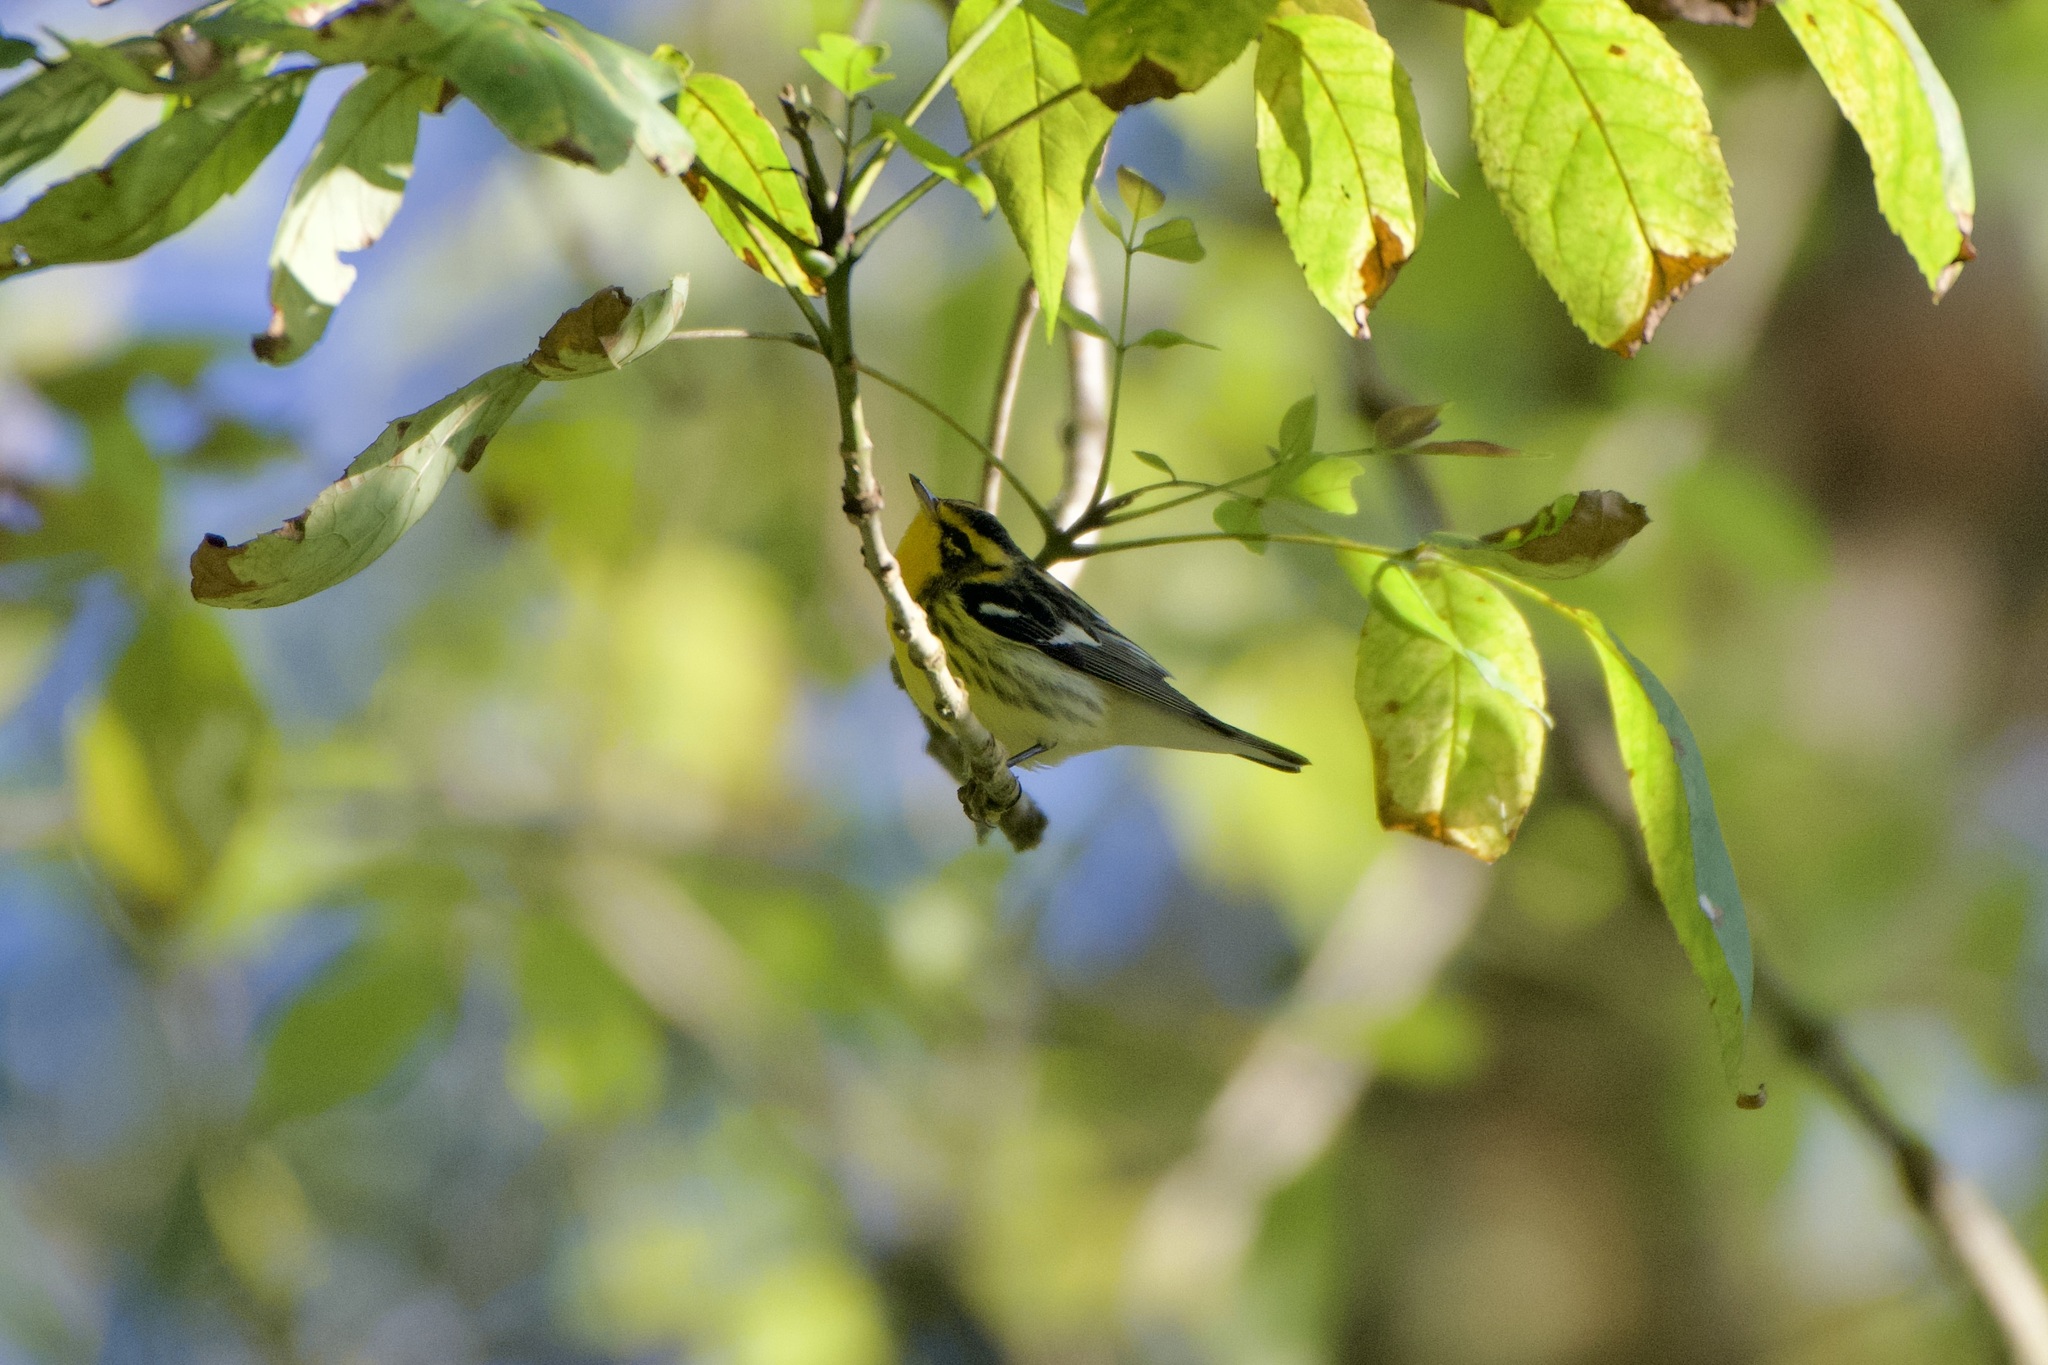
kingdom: Animalia
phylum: Chordata
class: Aves
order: Passeriformes
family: Parulidae
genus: Setophaga
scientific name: Setophaga fusca
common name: Blackburnian warbler
